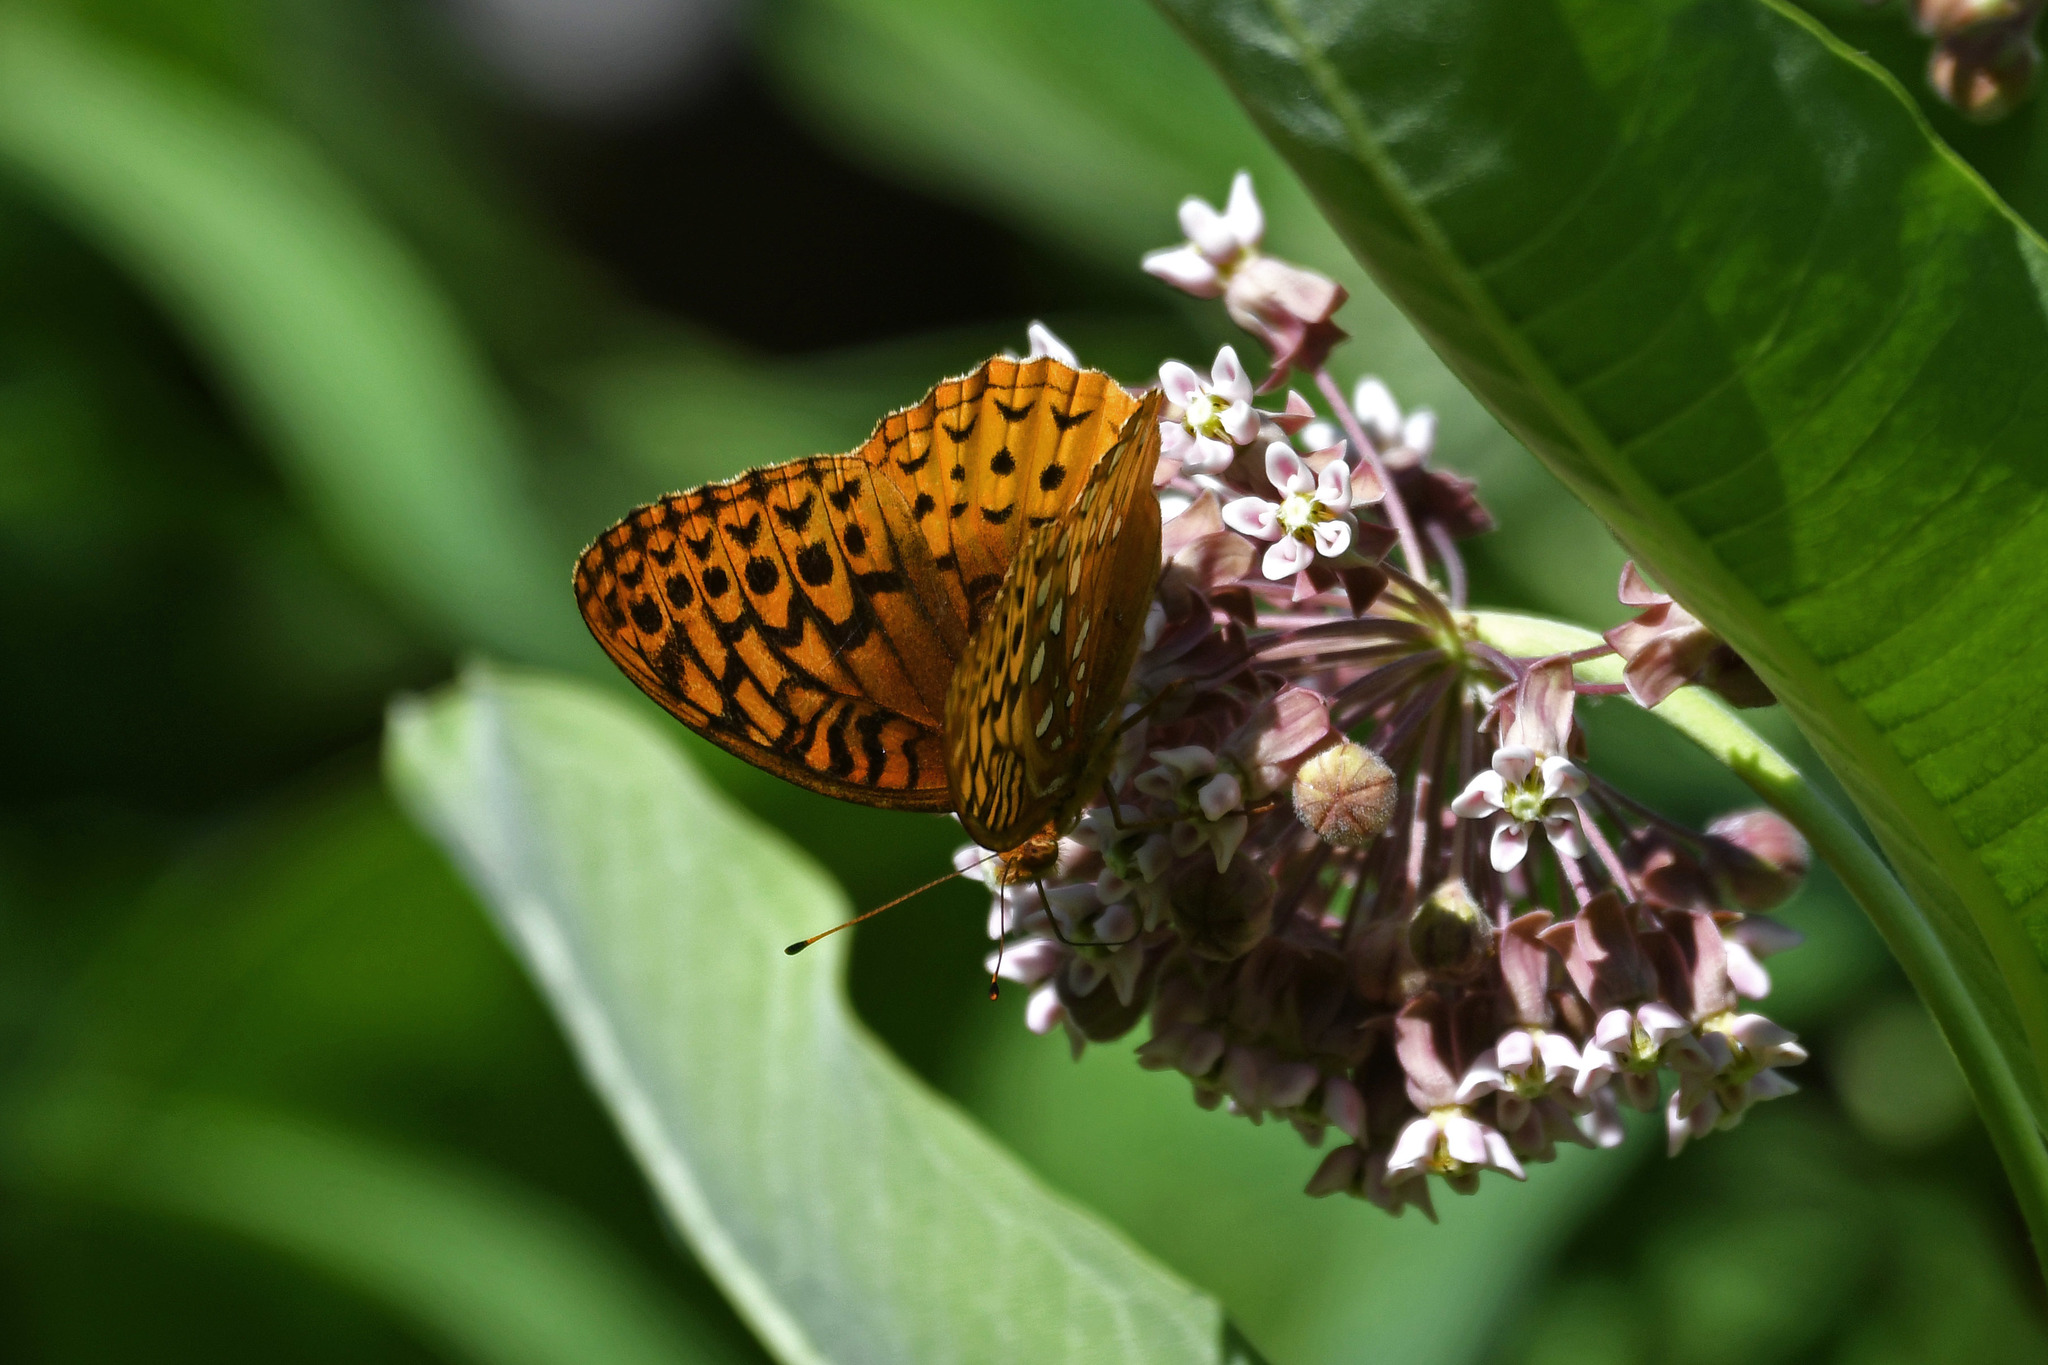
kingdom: Animalia
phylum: Arthropoda
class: Insecta
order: Lepidoptera
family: Nymphalidae
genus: Speyeria
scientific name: Speyeria cybele
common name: Great spangled fritillary
